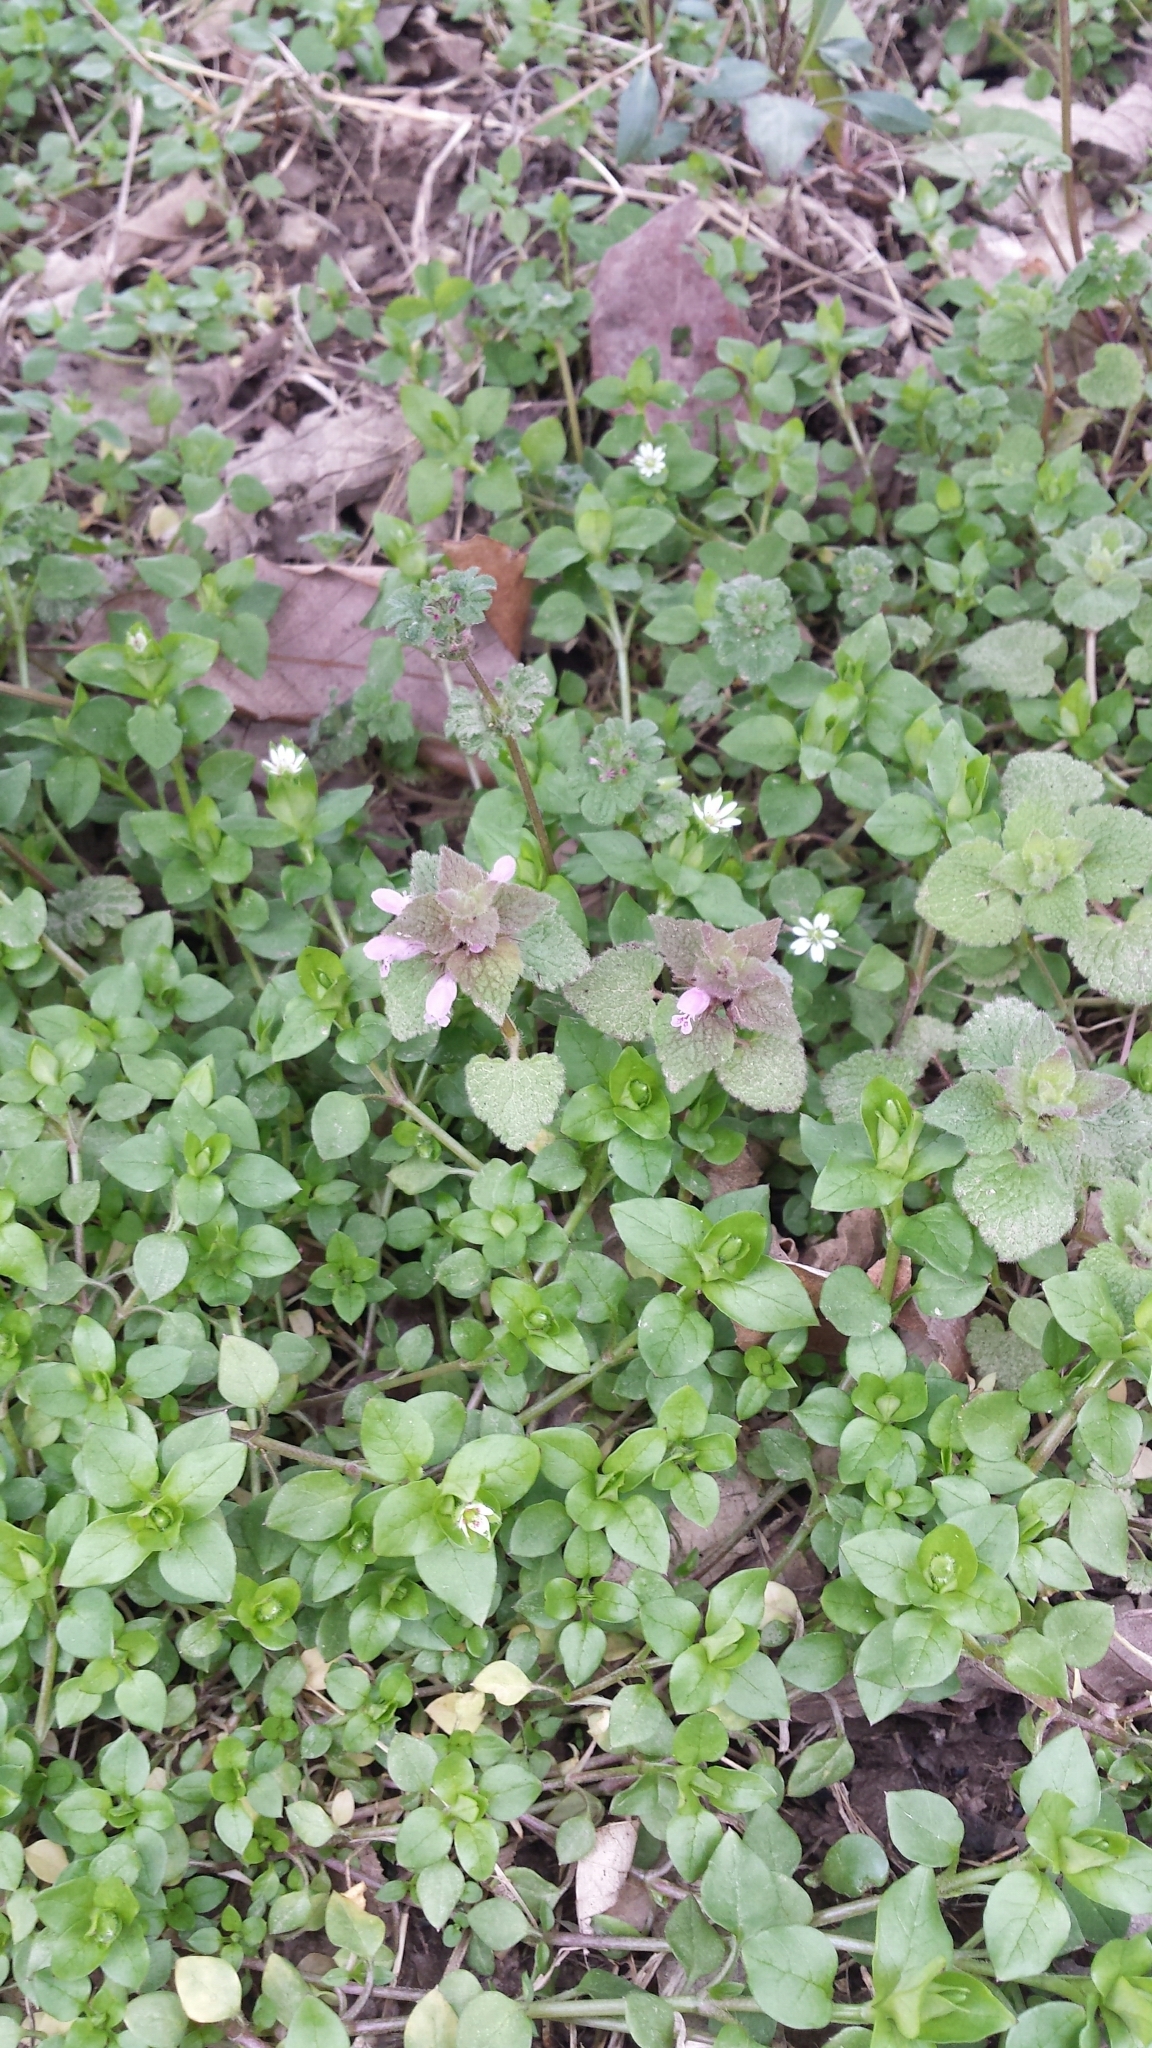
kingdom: Plantae
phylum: Tracheophyta
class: Magnoliopsida
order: Lamiales
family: Lamiaceae
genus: Lamium
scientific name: Lamium purpureum
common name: Red dead-nettle
